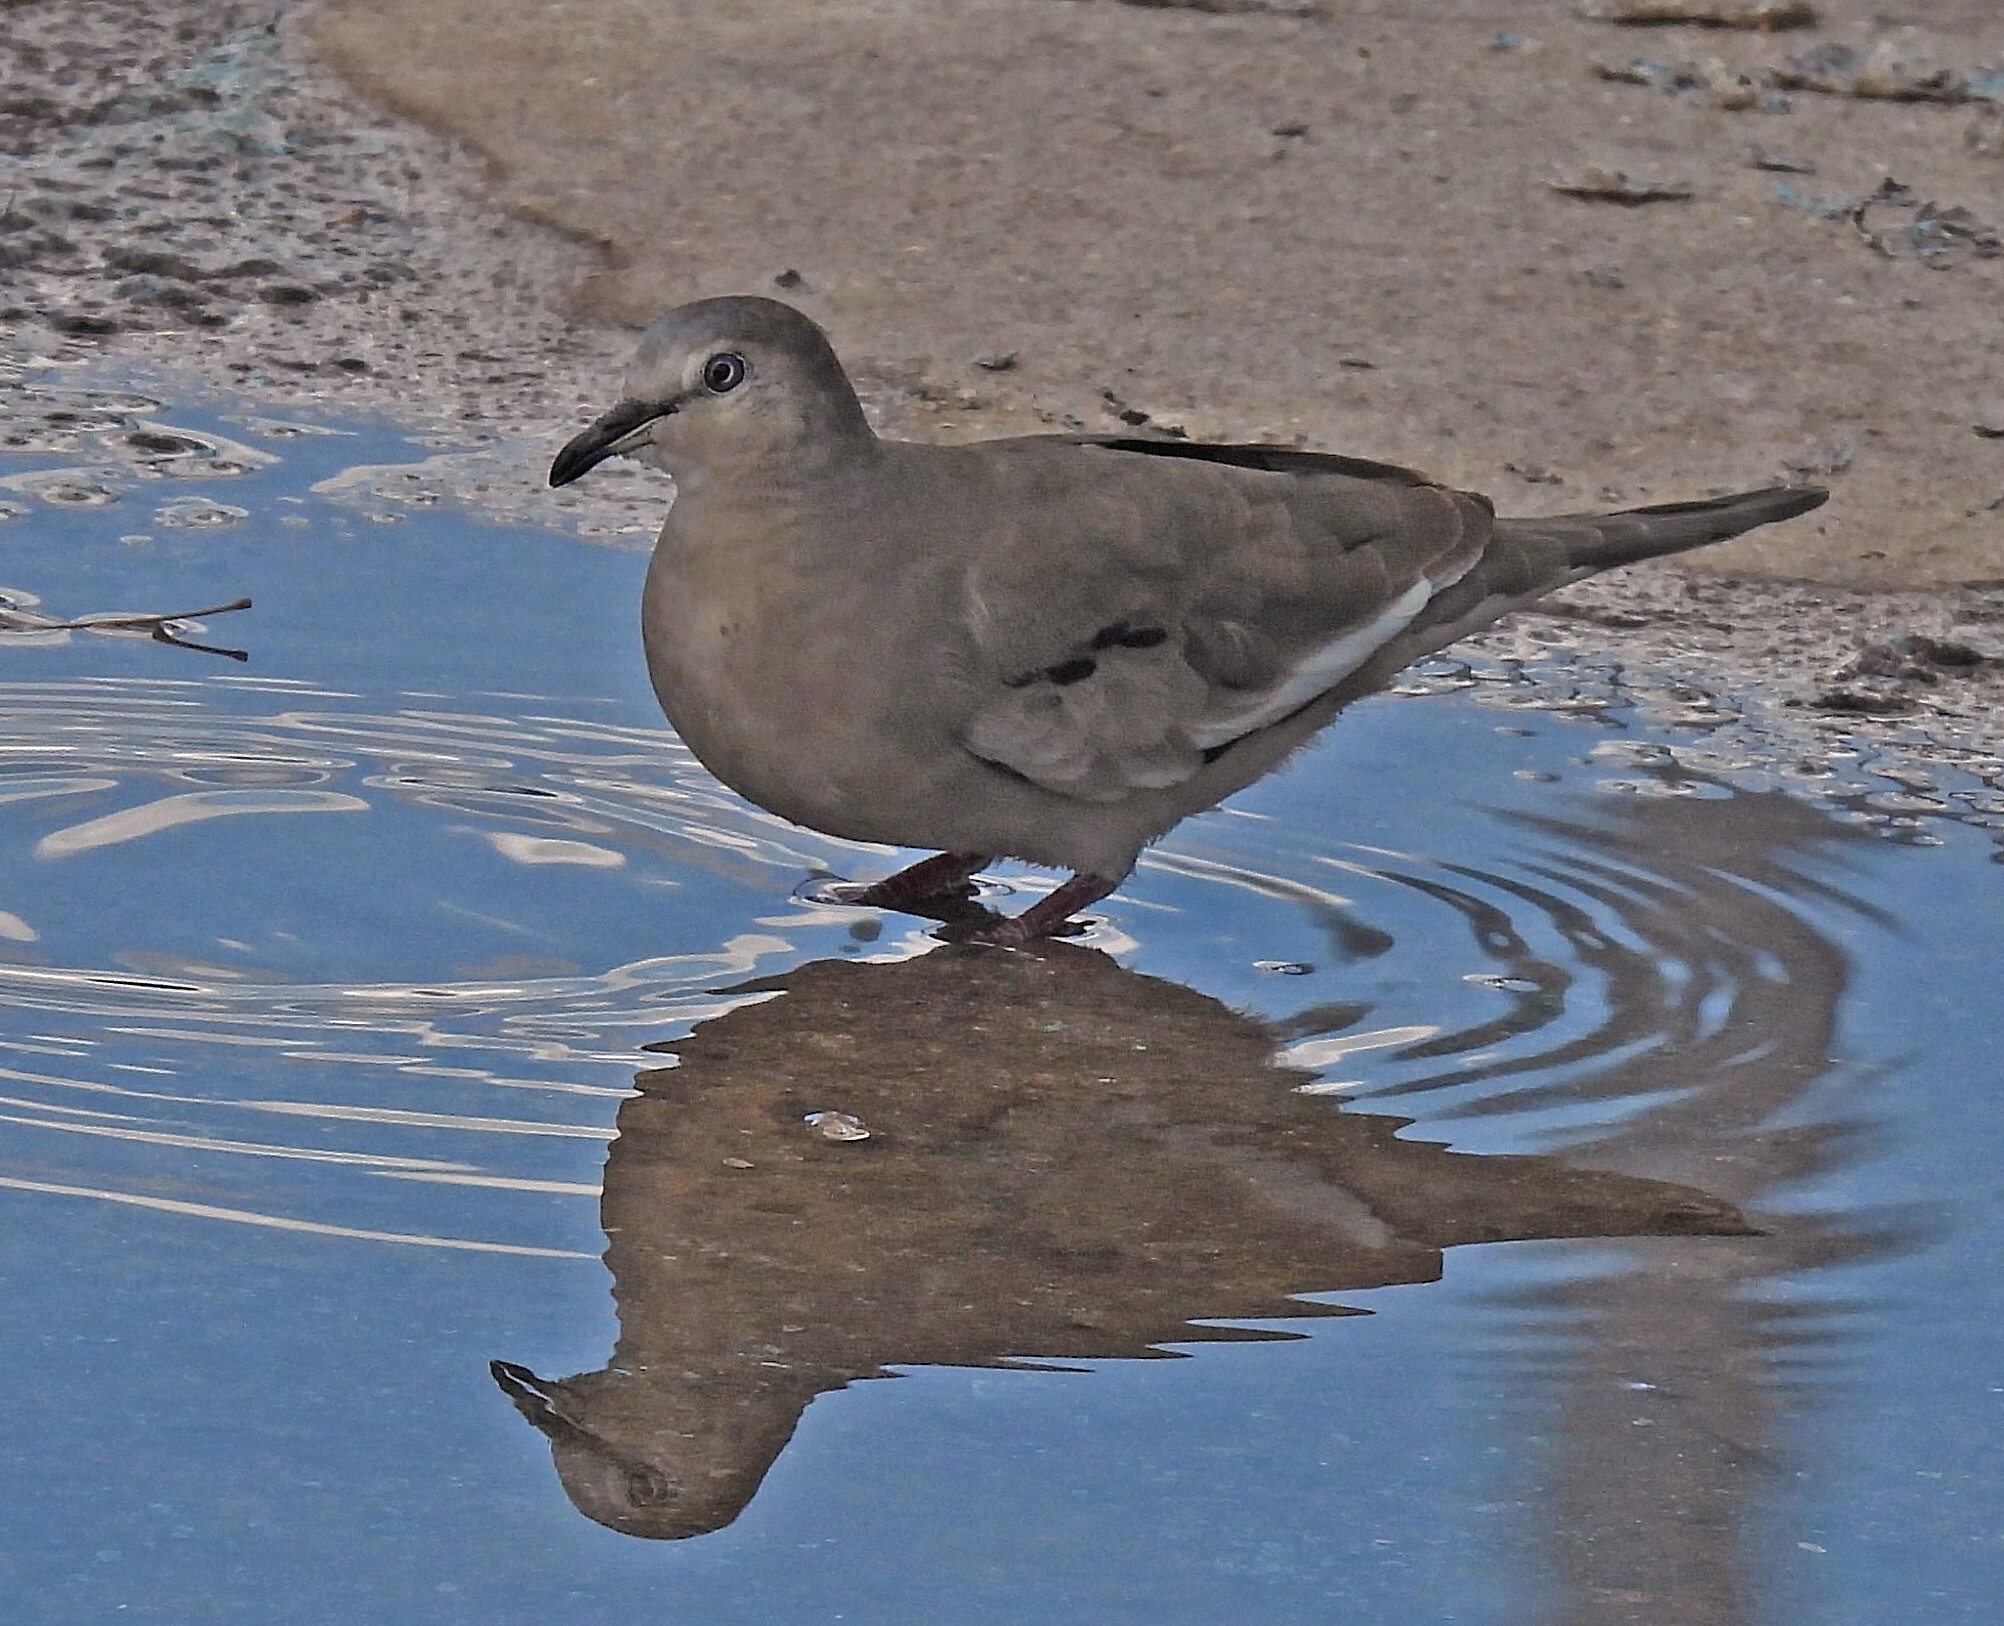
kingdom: Animalia
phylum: Chordata
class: Aves
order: Columbiformes
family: Columbidae
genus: Columbina
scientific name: Columbina picui
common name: Picui ground dove
